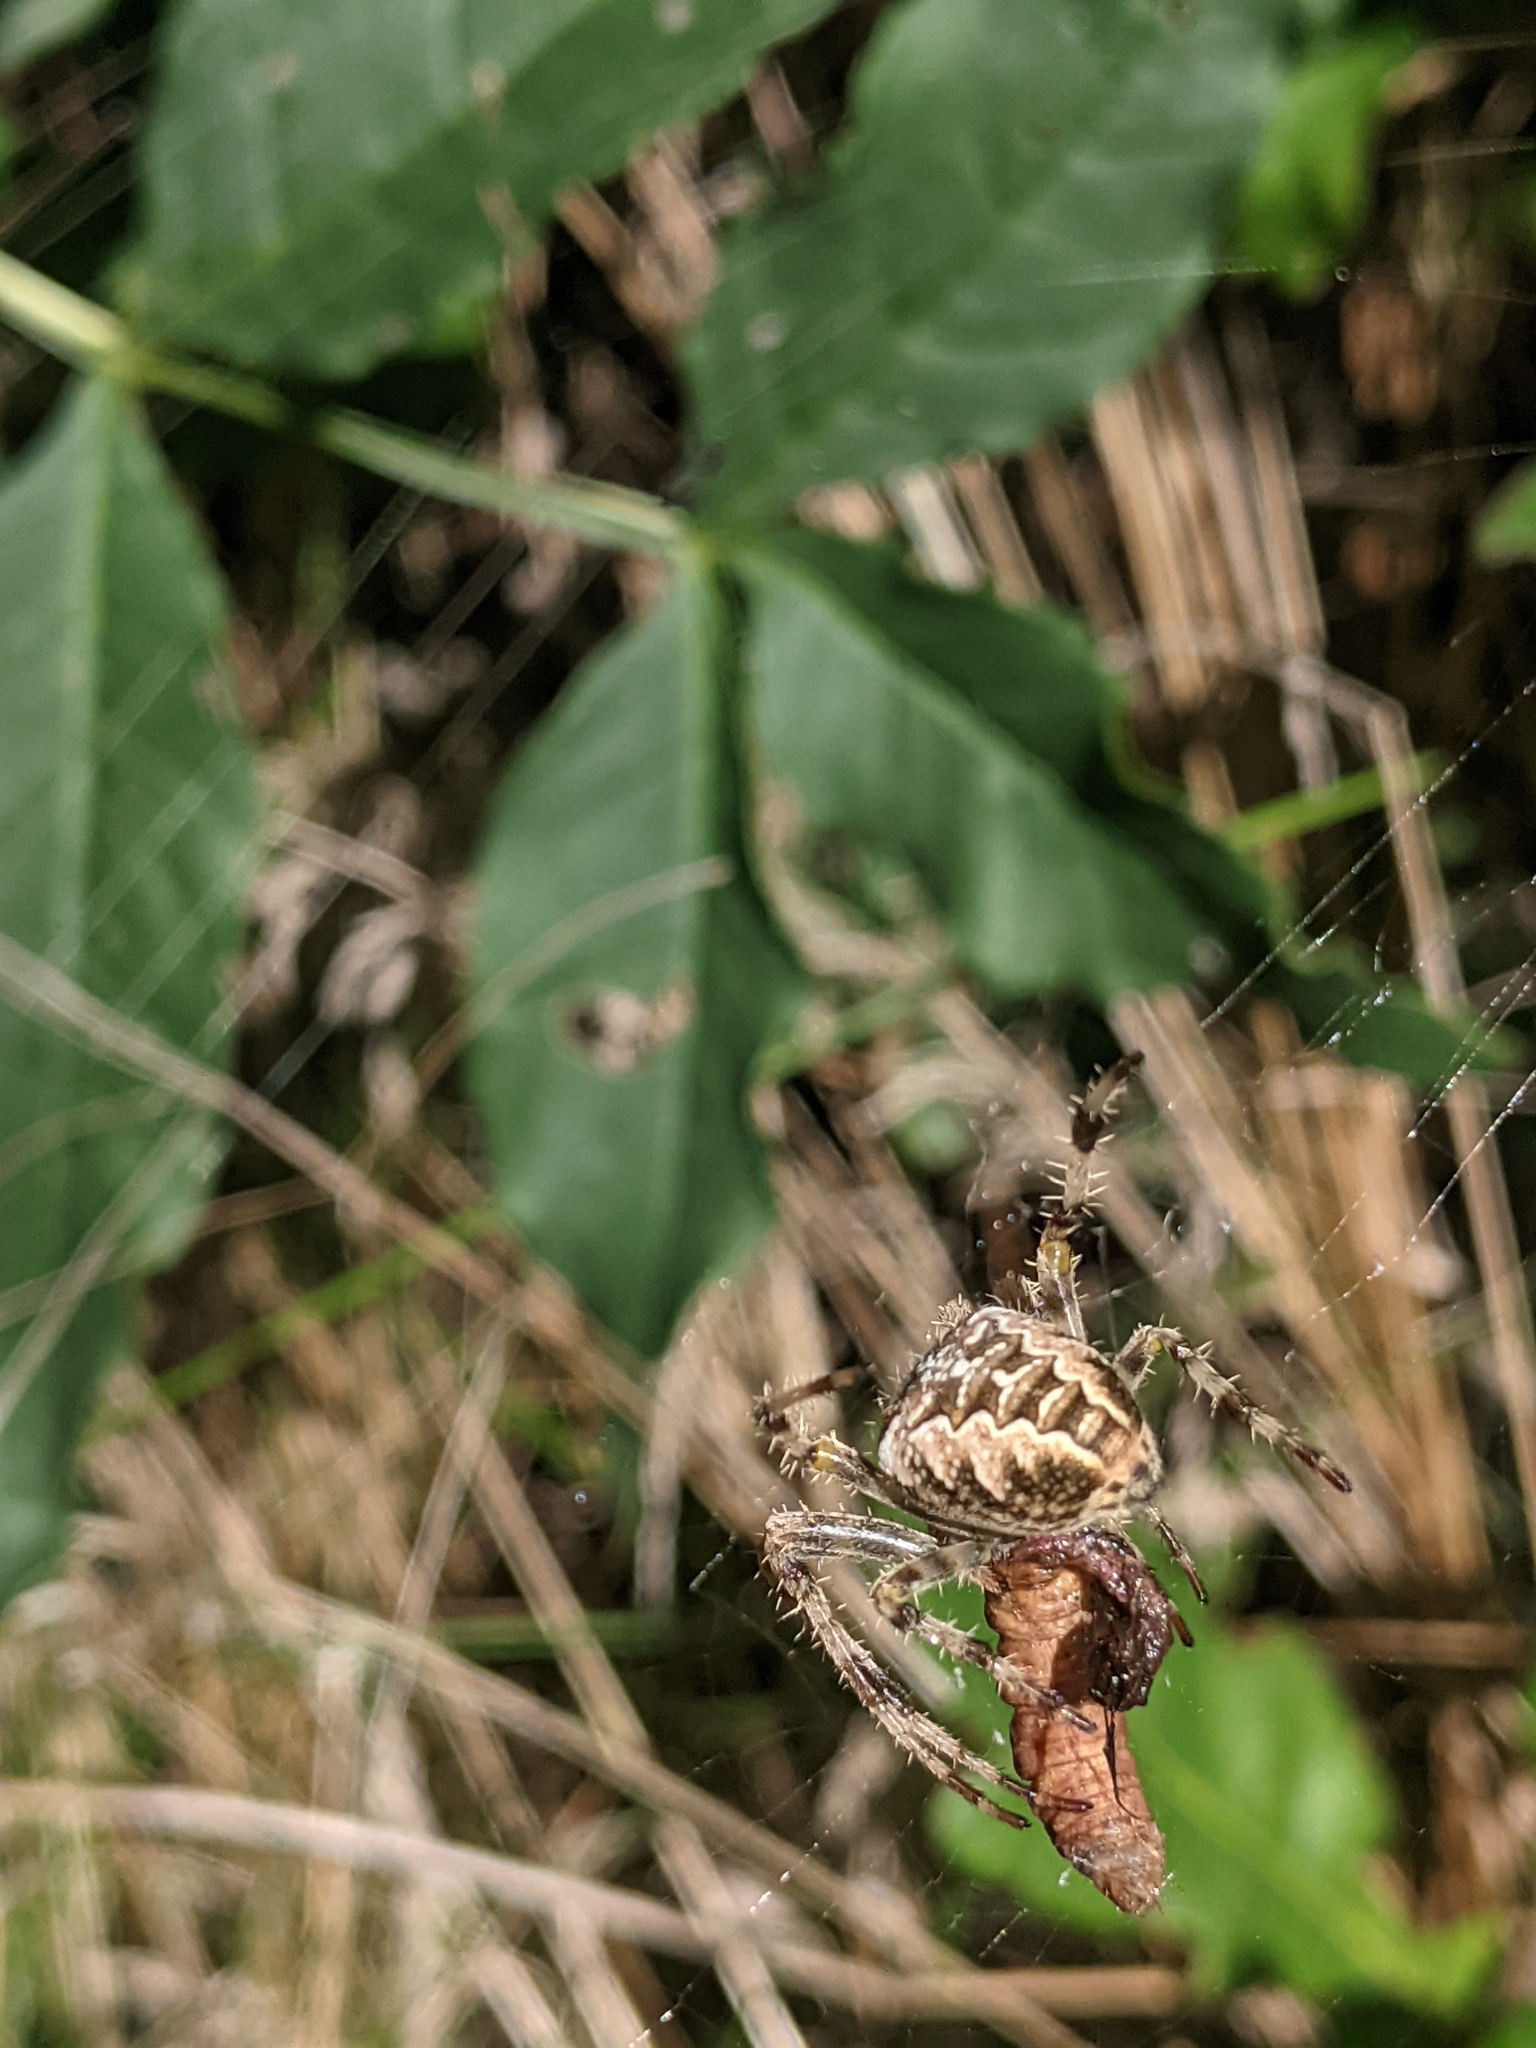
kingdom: Animalia
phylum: Arthropoda
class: Arachnida
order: Araneae
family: Araneidae
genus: Araneus
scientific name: Araneus diadematus
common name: Cross orbweaver
